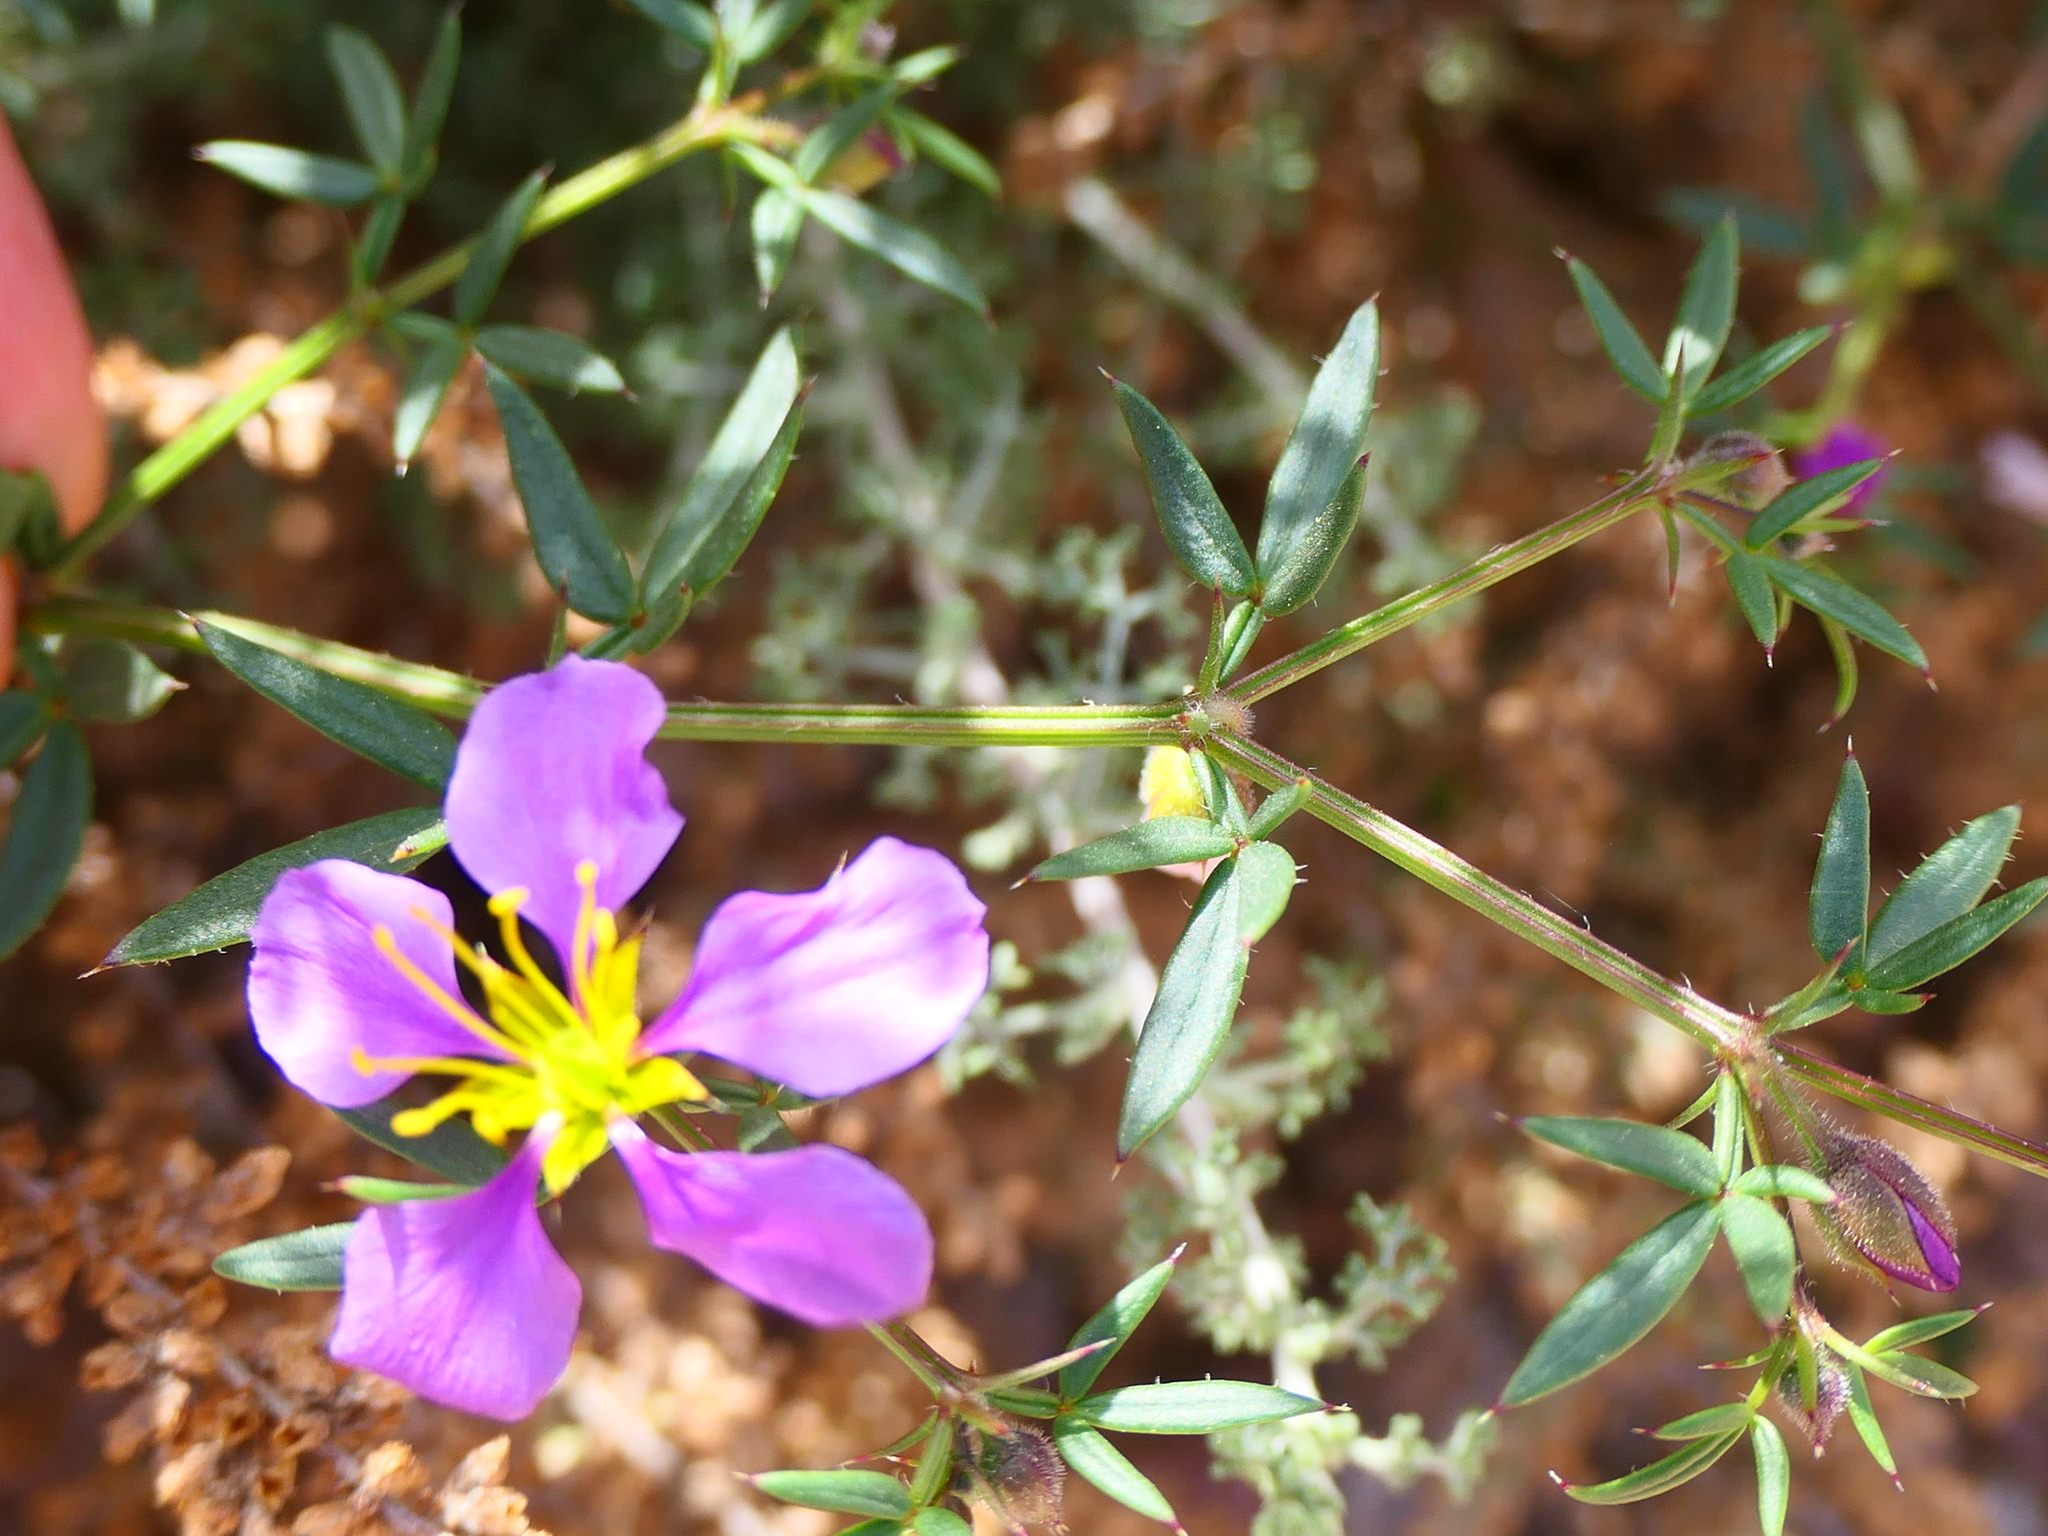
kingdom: Plantae
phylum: Tracheophyta
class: Magnoliopsida
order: Zygophyllales
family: Zygophyllaceae
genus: Fagonia
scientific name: Fagonia cretica
